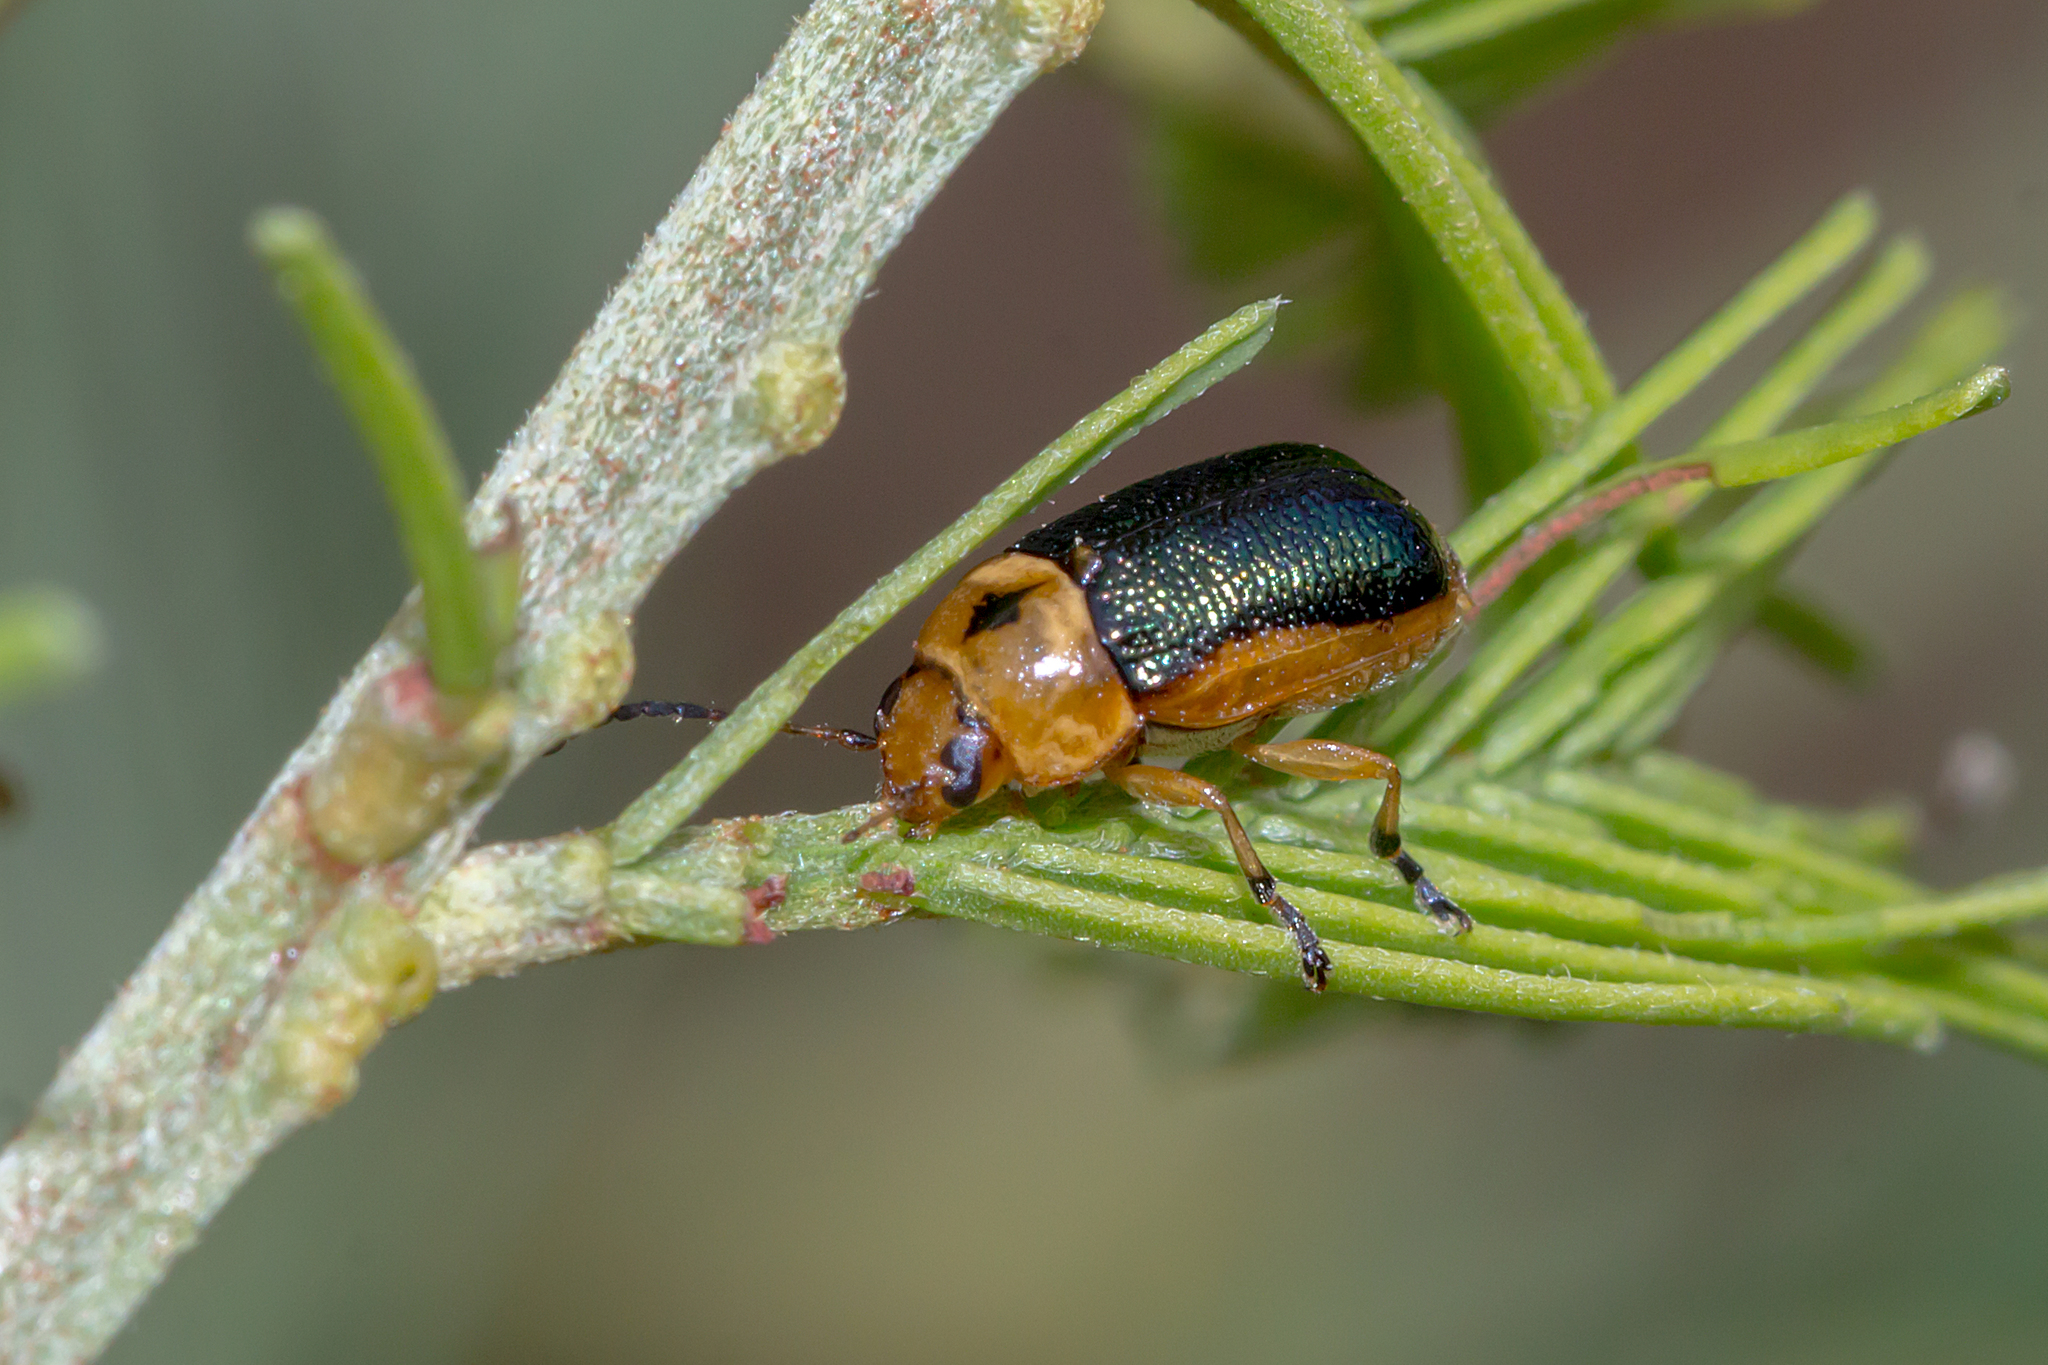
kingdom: Animalia
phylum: Arthropoda
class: Insecta
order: Coleoptera
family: Chrysomelidae
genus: Aporocera
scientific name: Aporocera
